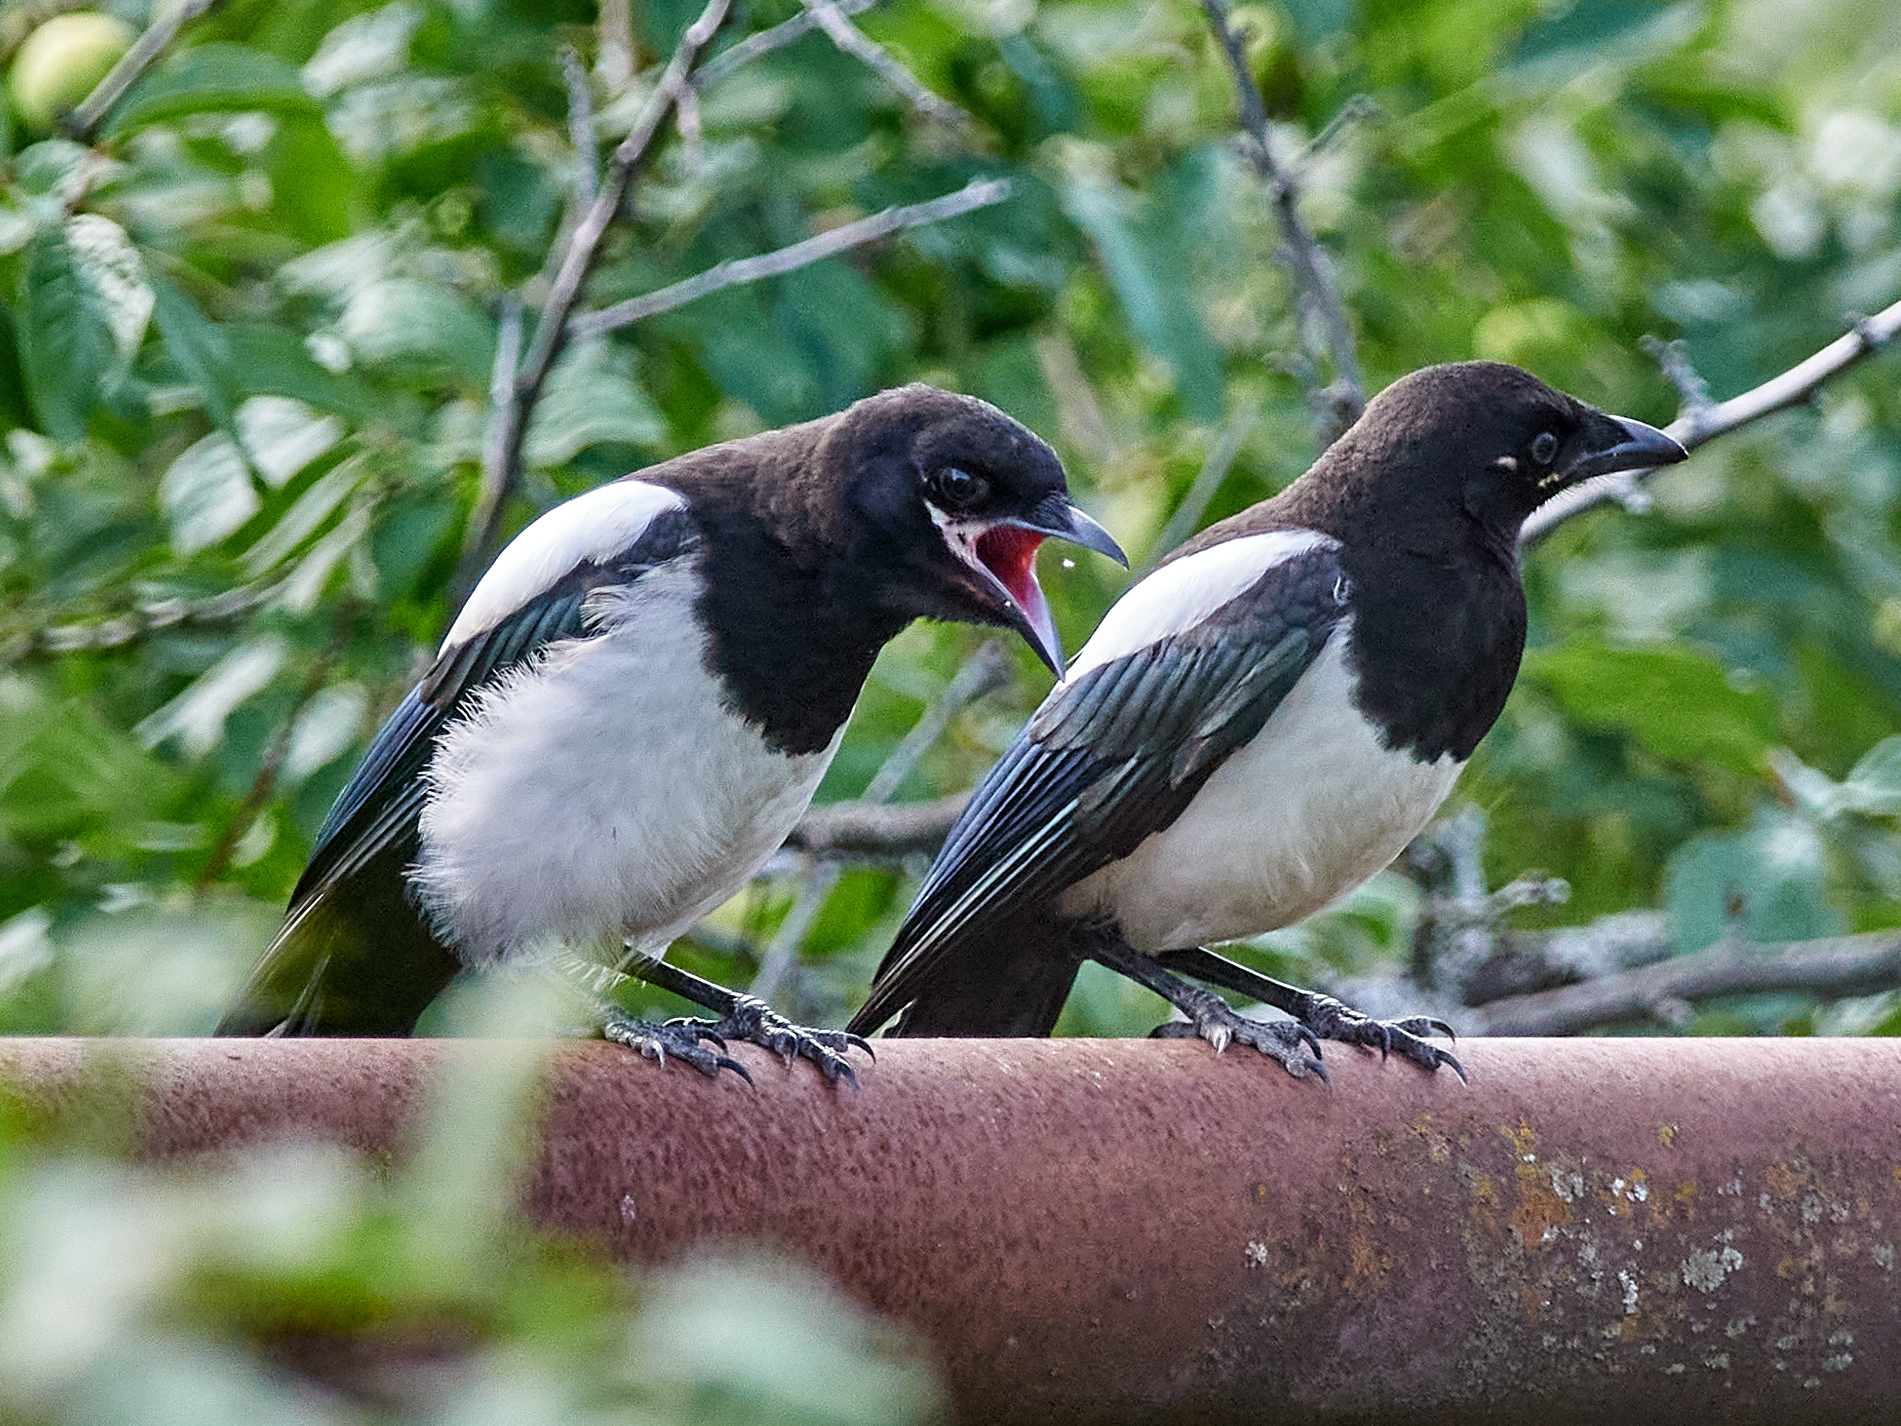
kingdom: Animalia
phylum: Chordata
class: Aves
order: Passeriformes
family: Corvidae
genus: Pica
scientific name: Pica pica
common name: Eurasian magpie
